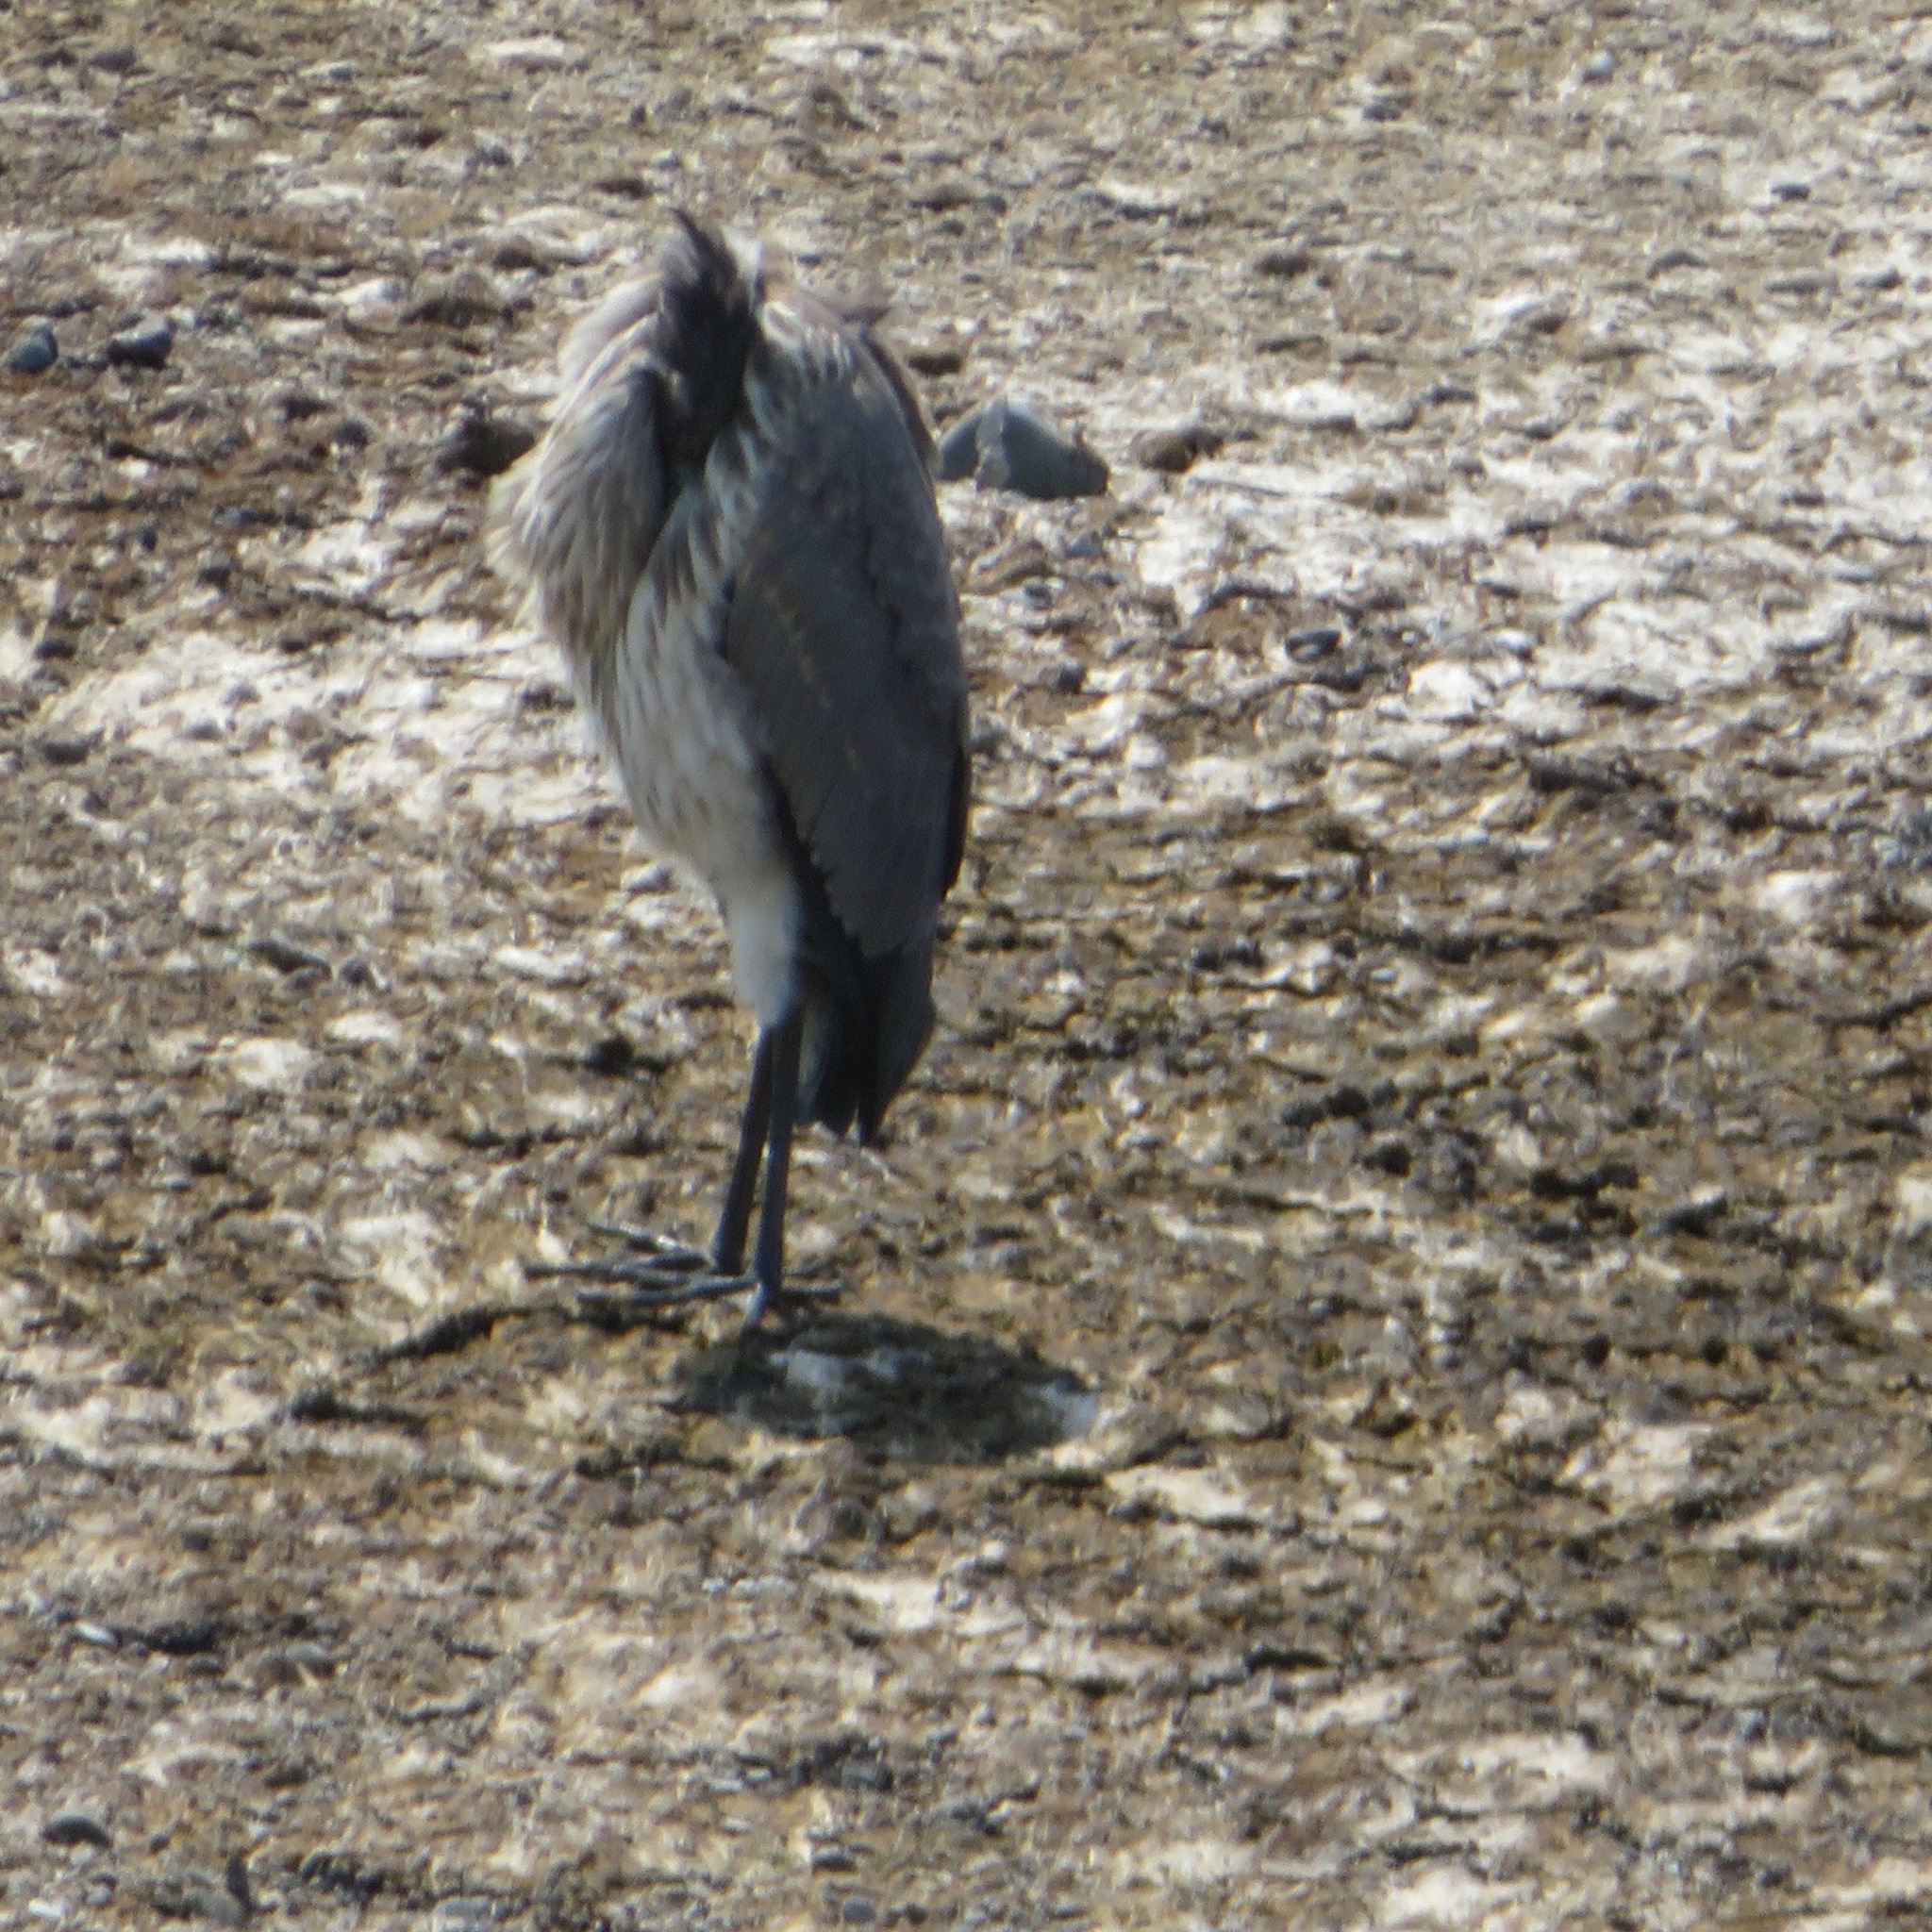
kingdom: Animalia
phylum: Chordata
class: Aves
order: Pelecaniformes
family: Ardeidae
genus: Ardea
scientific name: Ardea herodias
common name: Great blue heron
